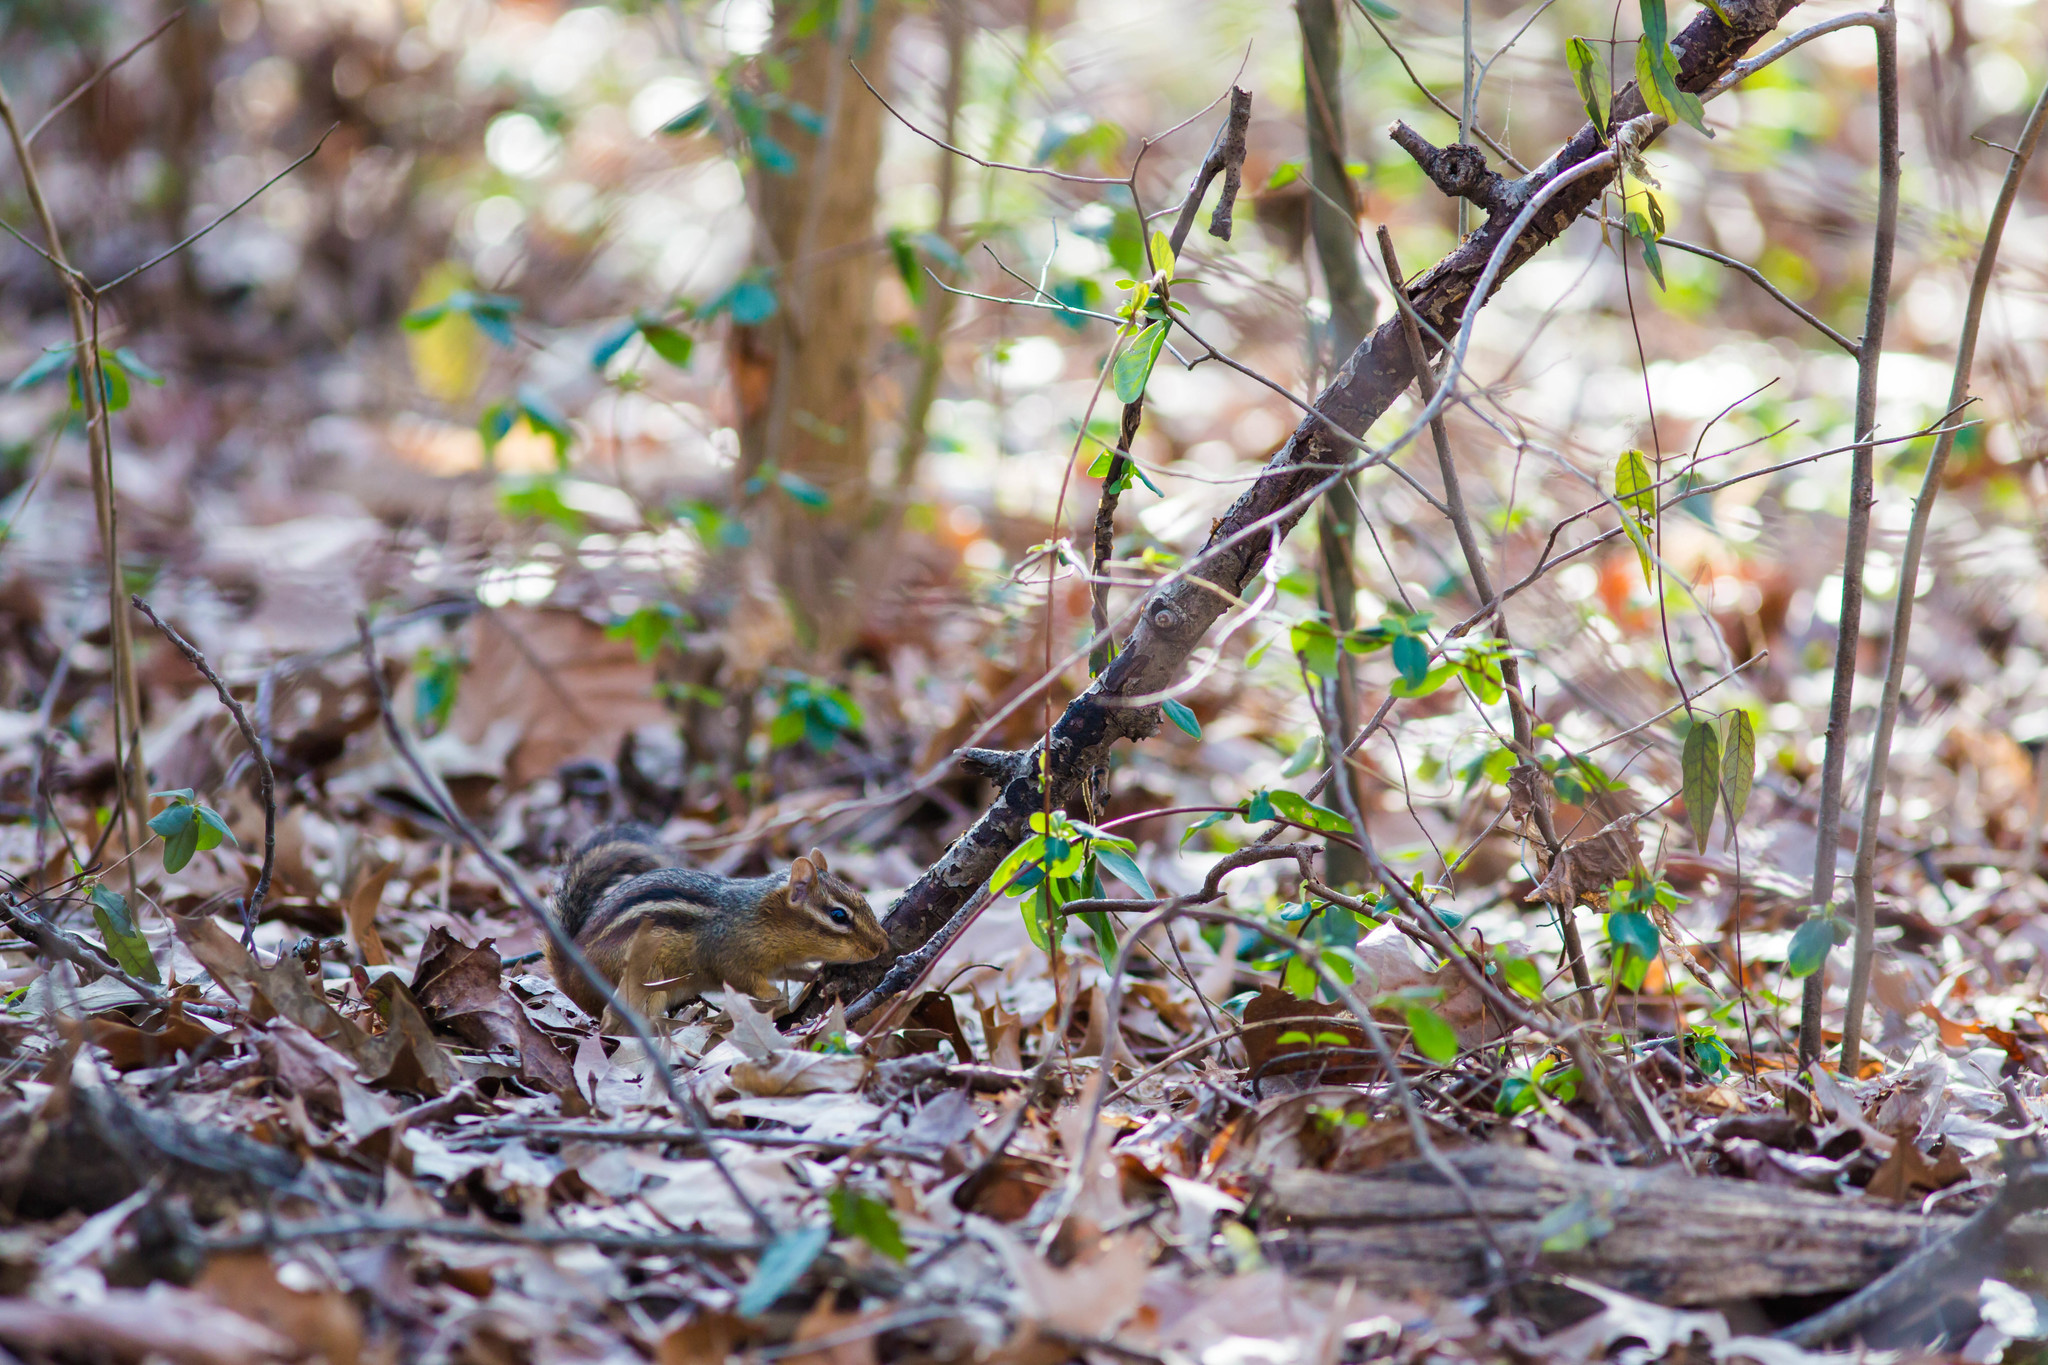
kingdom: Animalia
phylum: Chordata
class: Mammalia
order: Rodentia
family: Sciuridae
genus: Tamias
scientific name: Tamias striatus
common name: Eastern chipmunk
